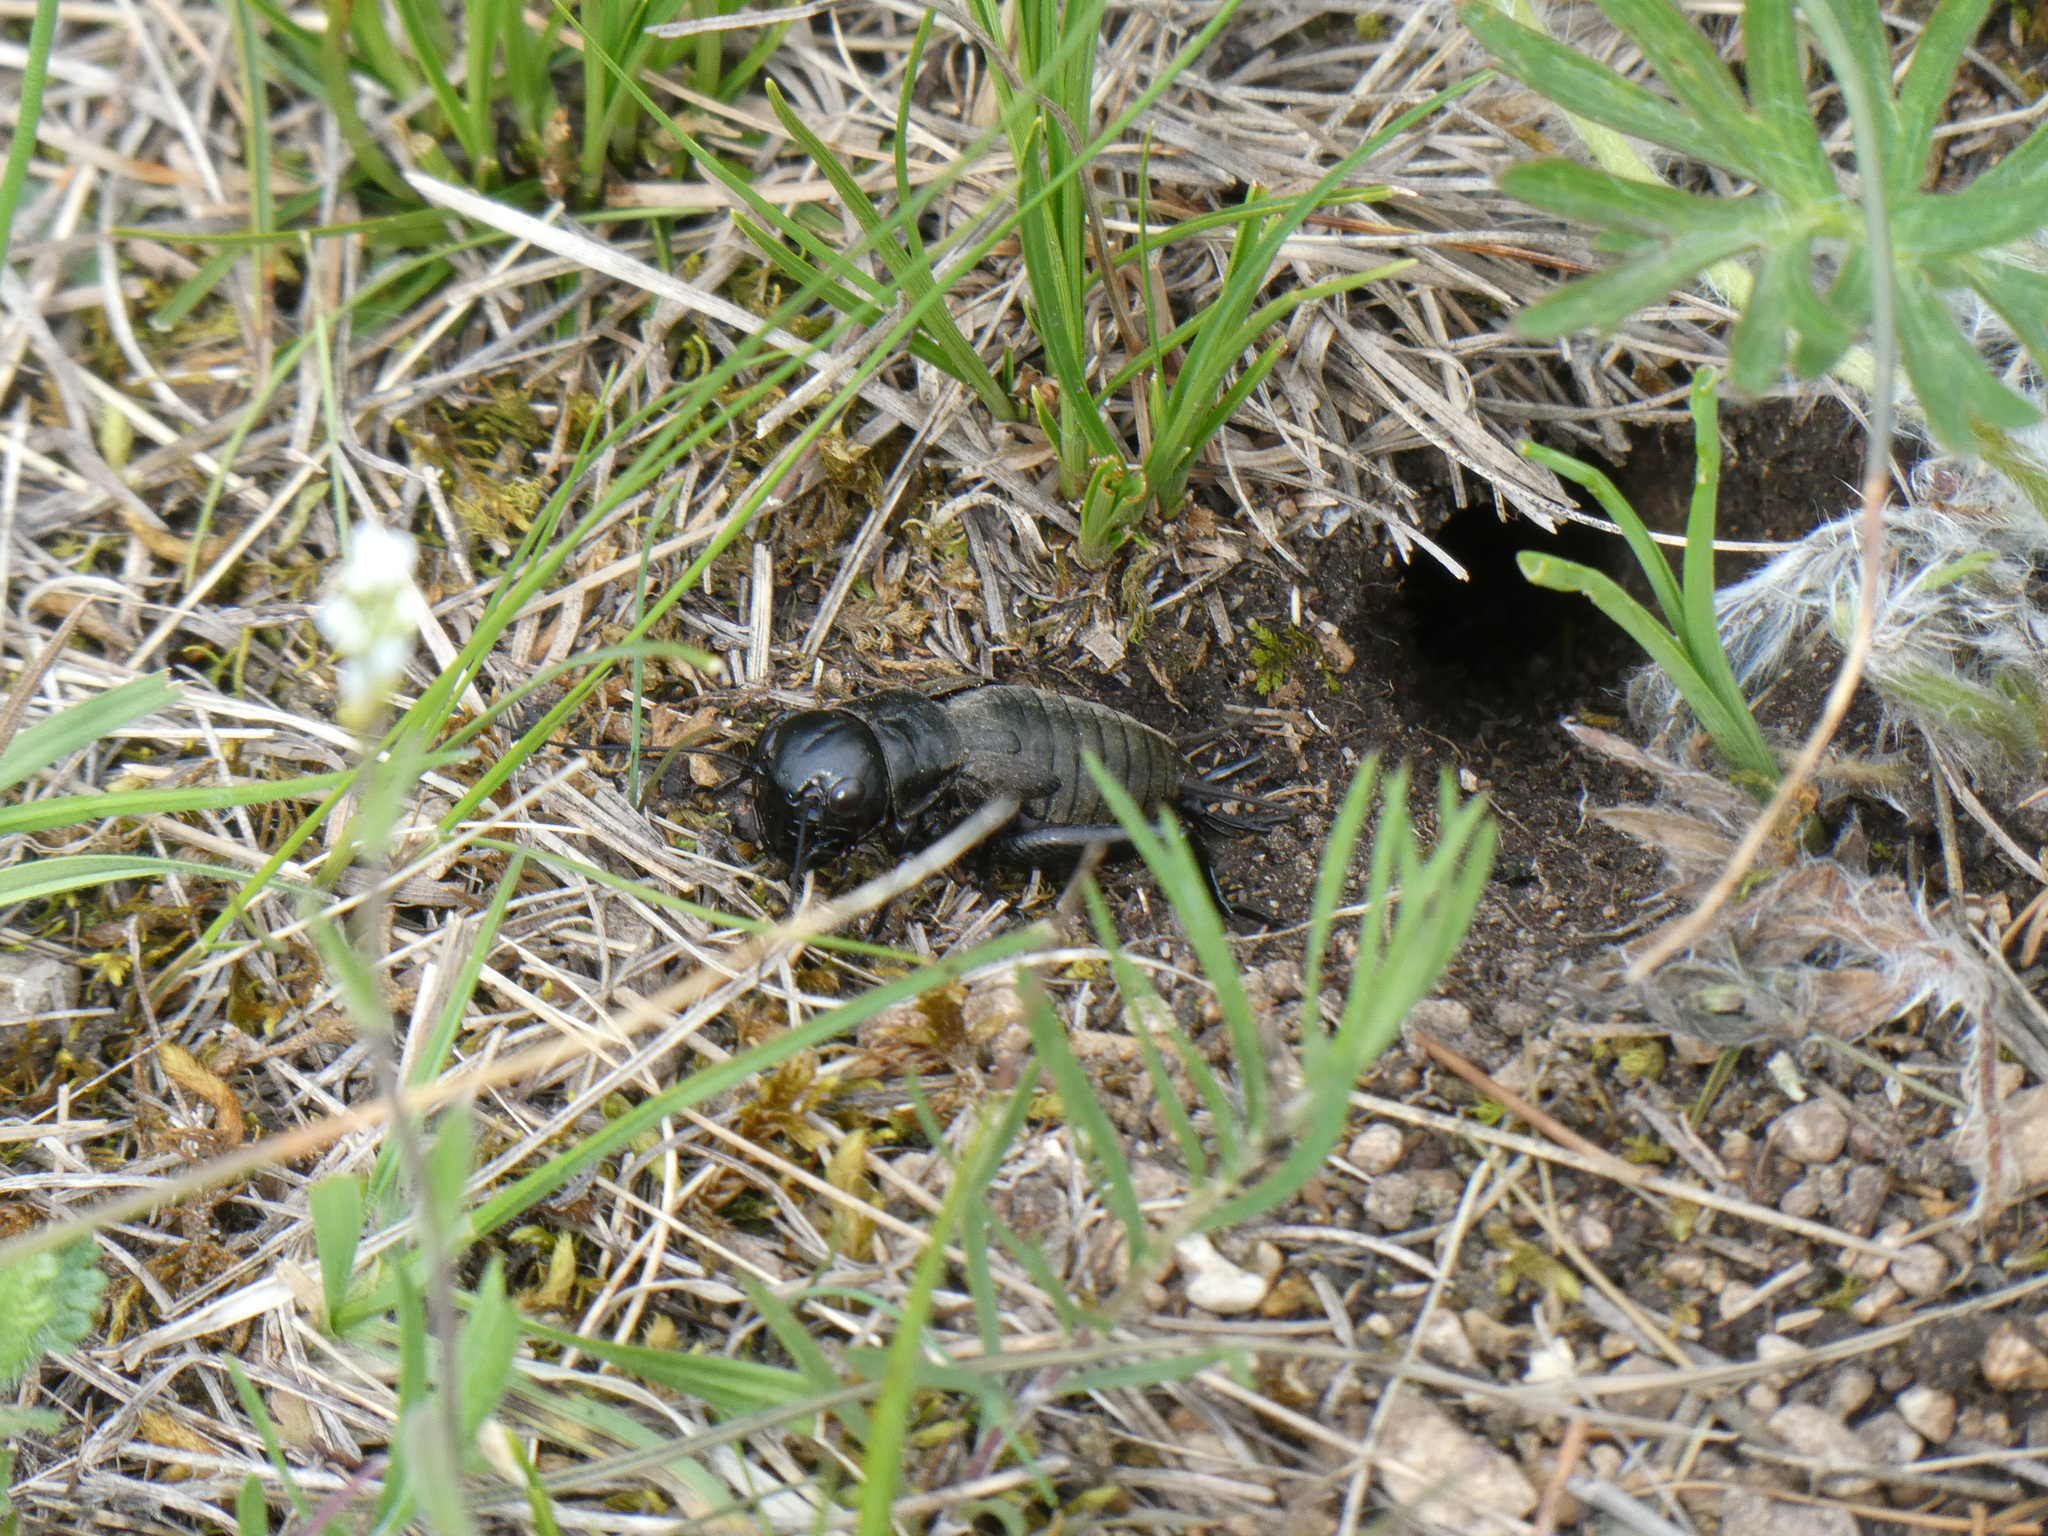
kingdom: Animalia
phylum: Arthropoda
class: Insecta
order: Orthoptera
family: Gryllidae
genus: Gryllus
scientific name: Gryllus campestris
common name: Field cricket
